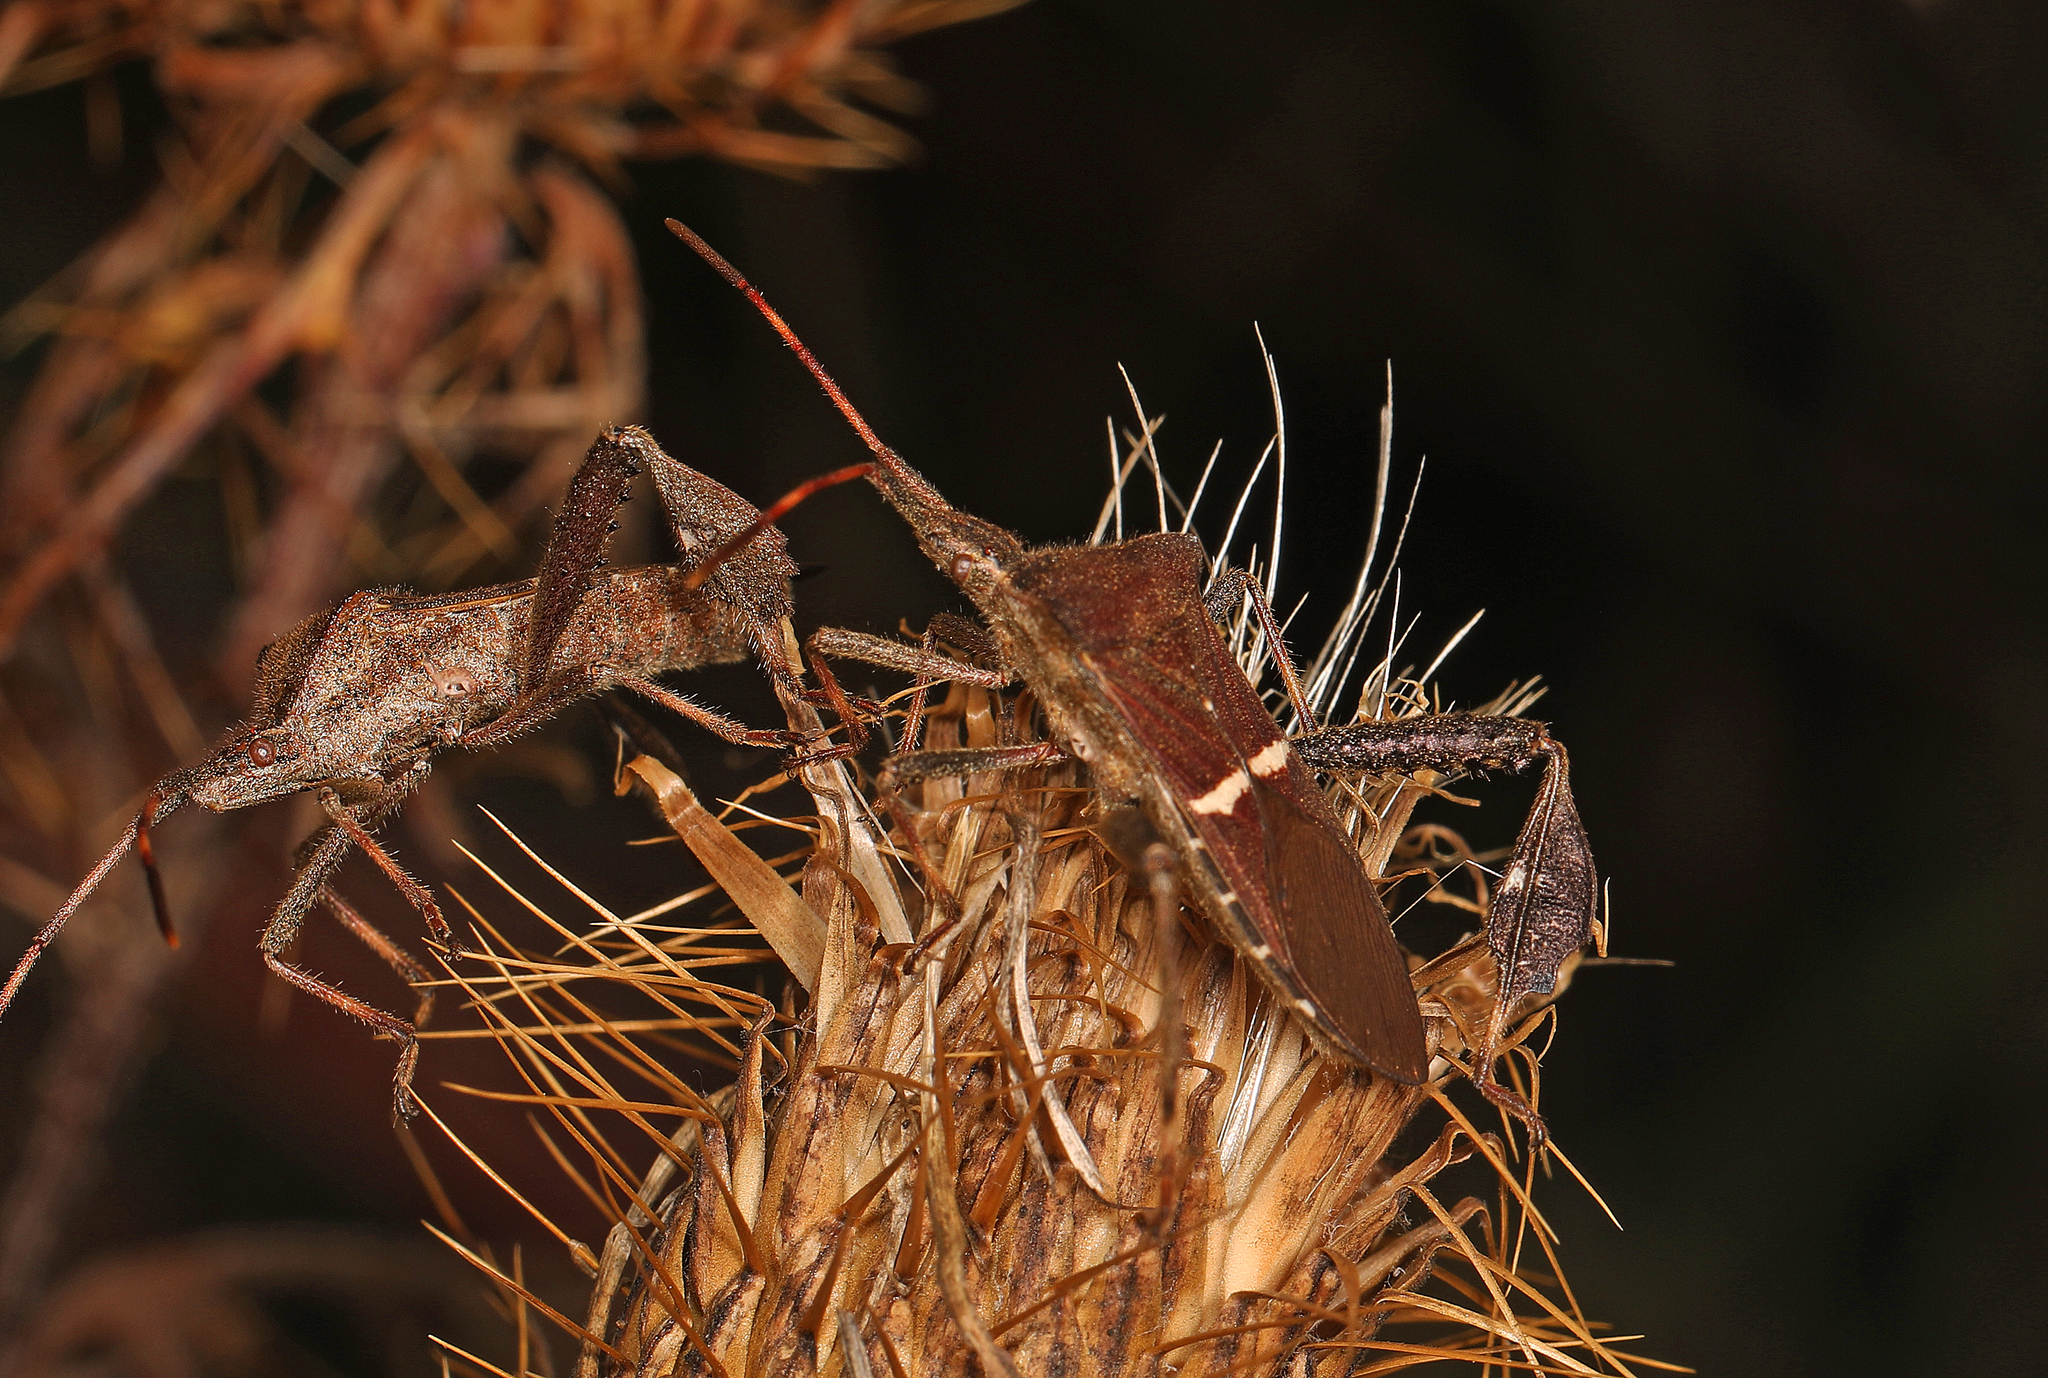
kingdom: Animalia
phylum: Arthropoda
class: Insecta
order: Hemiptera
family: Coreidae
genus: Leptoglossus
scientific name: Leptoglossus phyllopus
